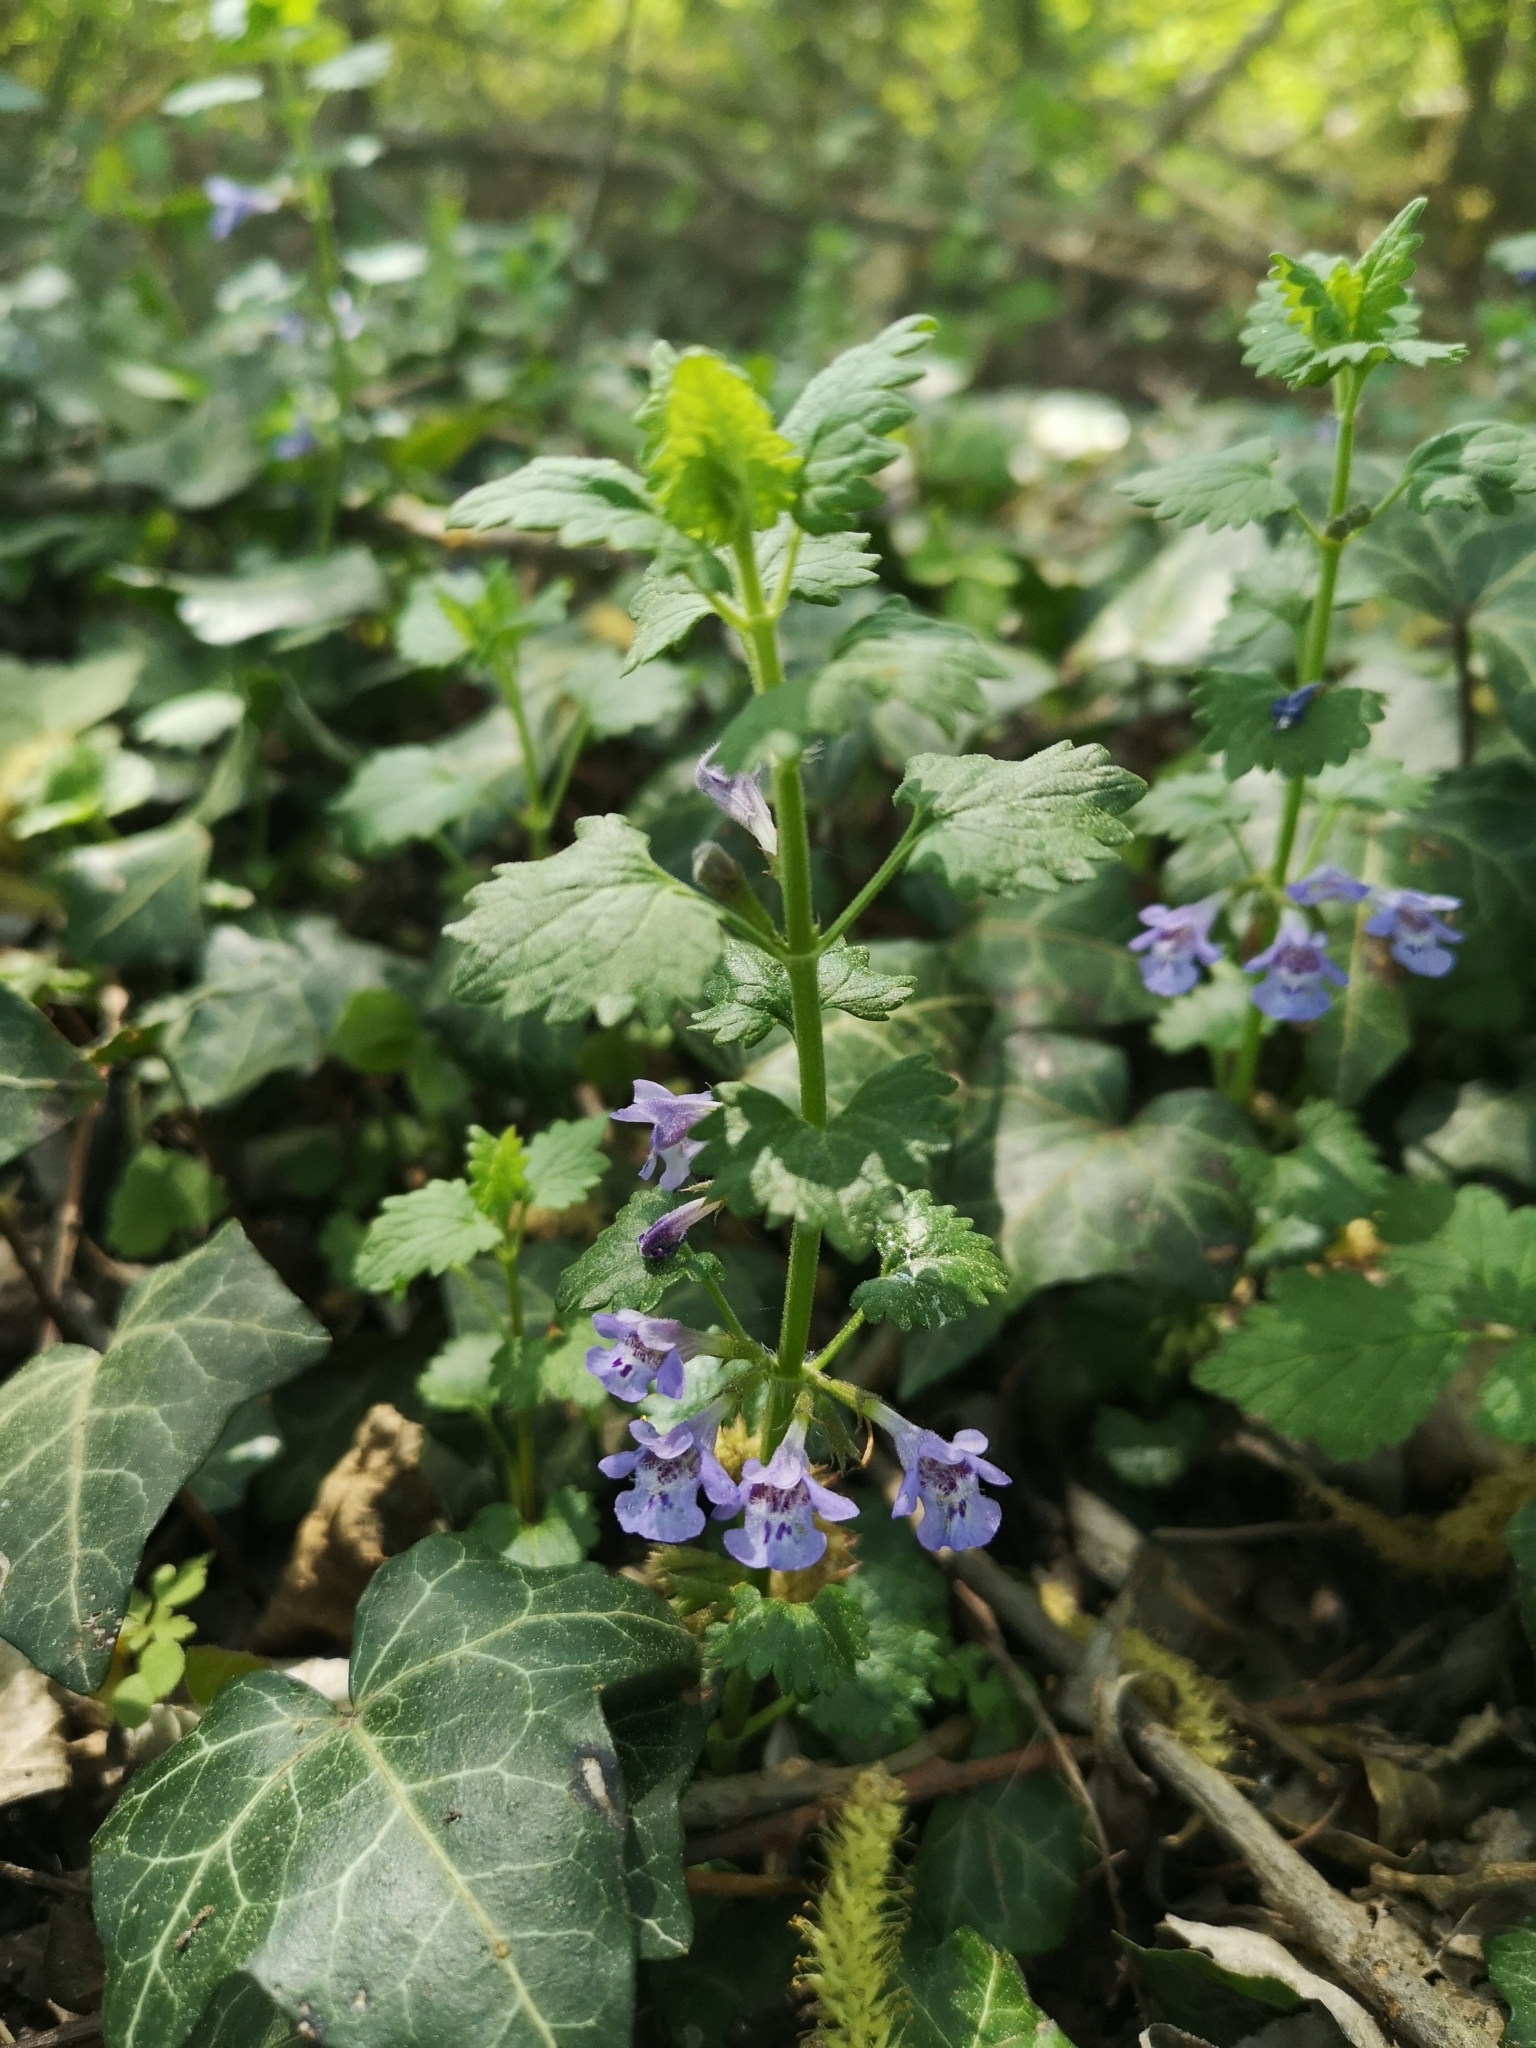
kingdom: Plantae
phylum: Tracheophyta
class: Magnoliopsida
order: Lamiales
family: Lamiaceae
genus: Glechoma
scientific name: Glechoma hederacea
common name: Ground ivy
